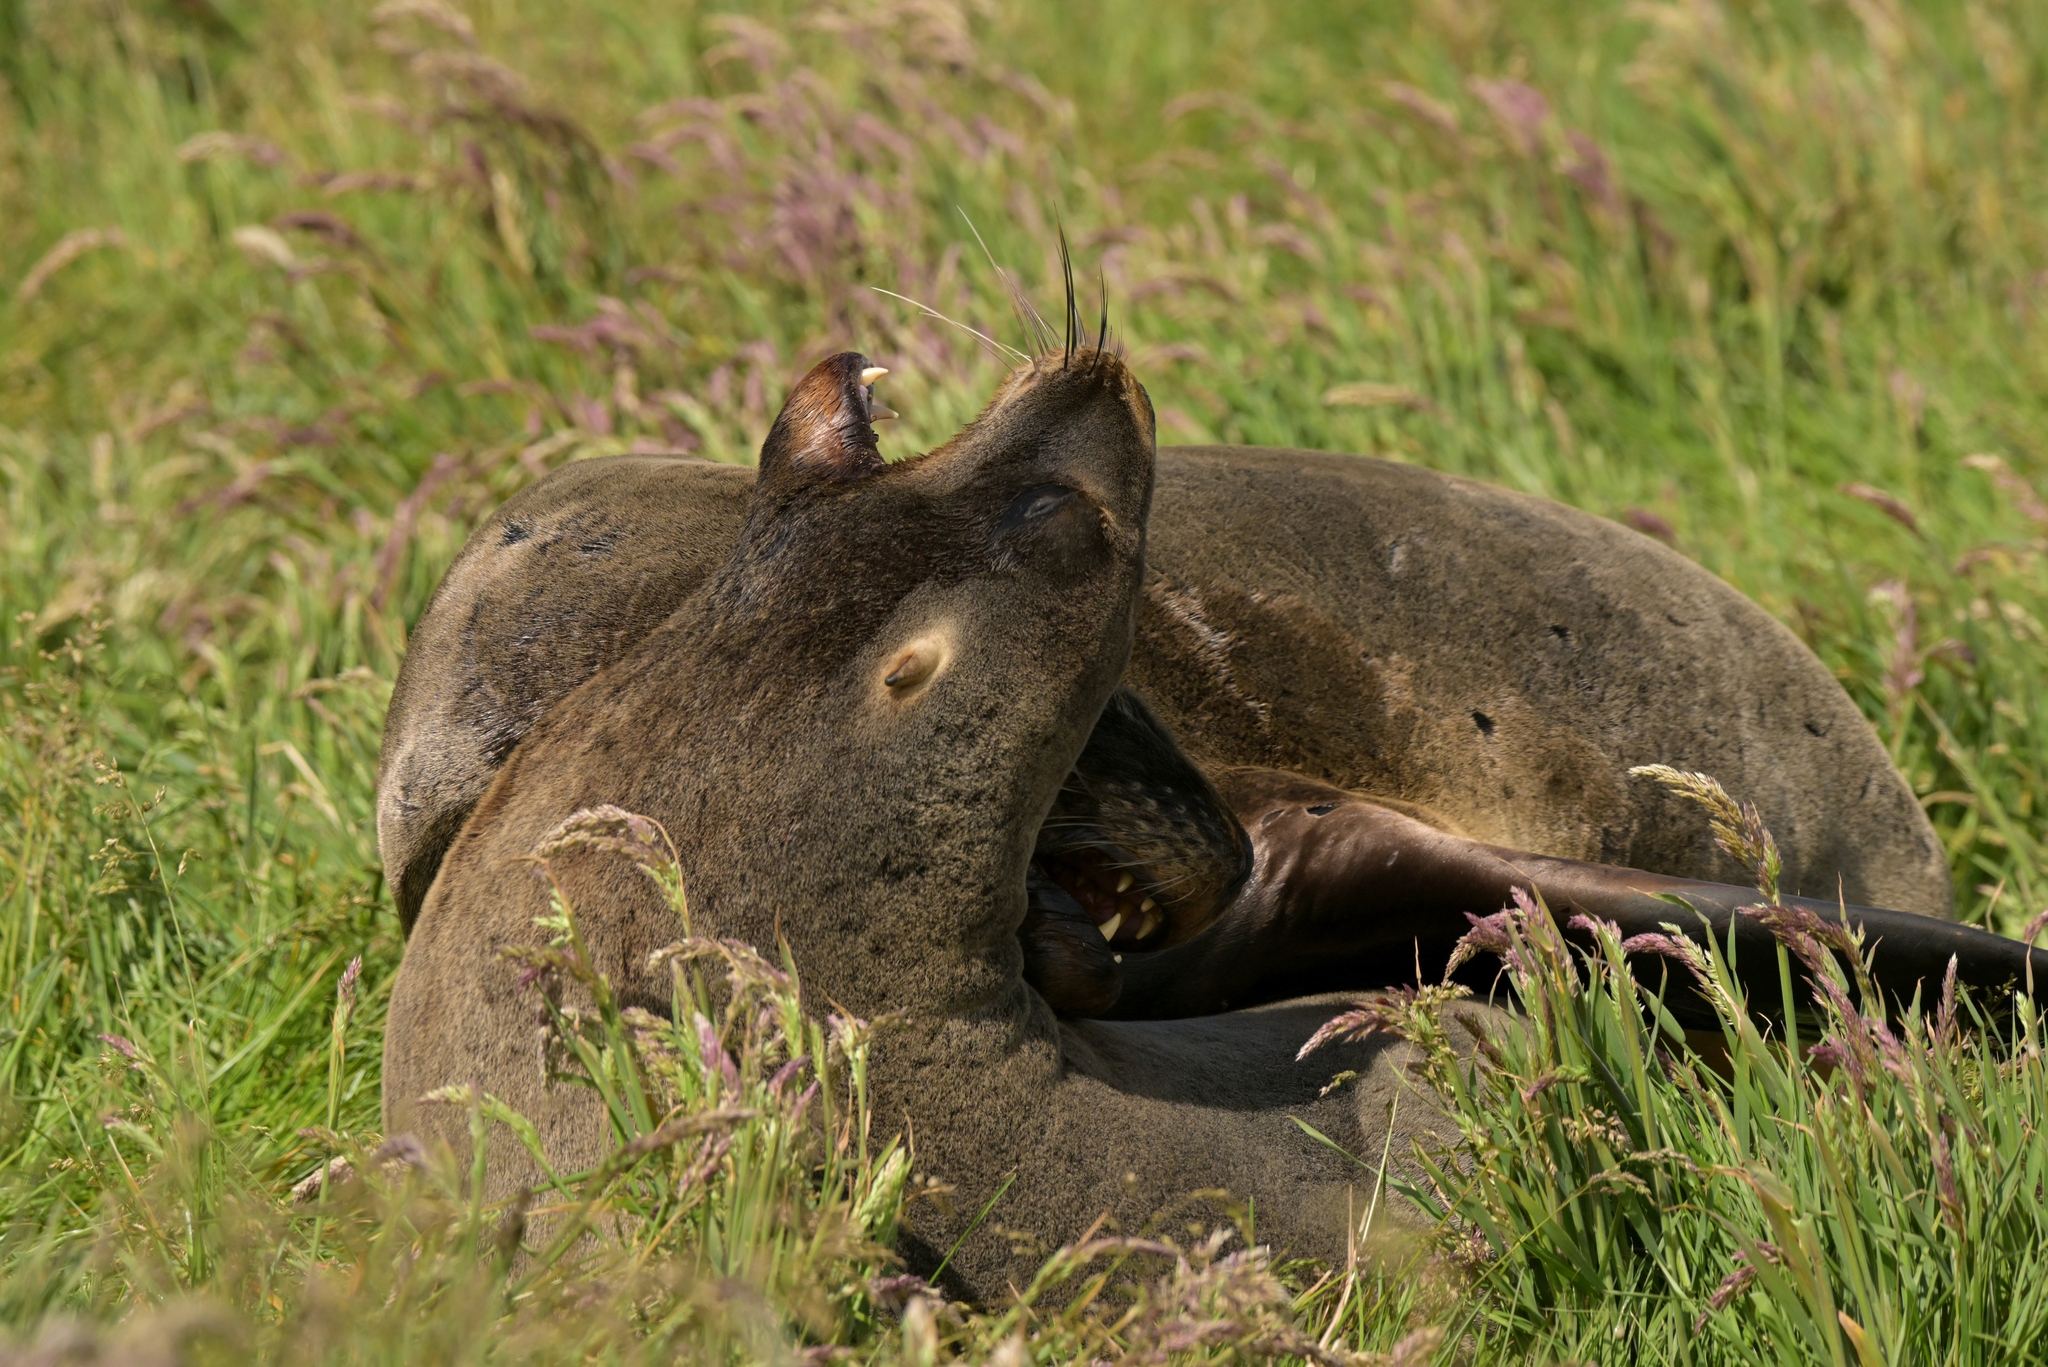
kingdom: Animalia
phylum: Chordata
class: Mammalia
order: Carnivora
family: Otariidae
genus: Phocarctos
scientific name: Phocarctos hookeri
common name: New zealand sea lion
